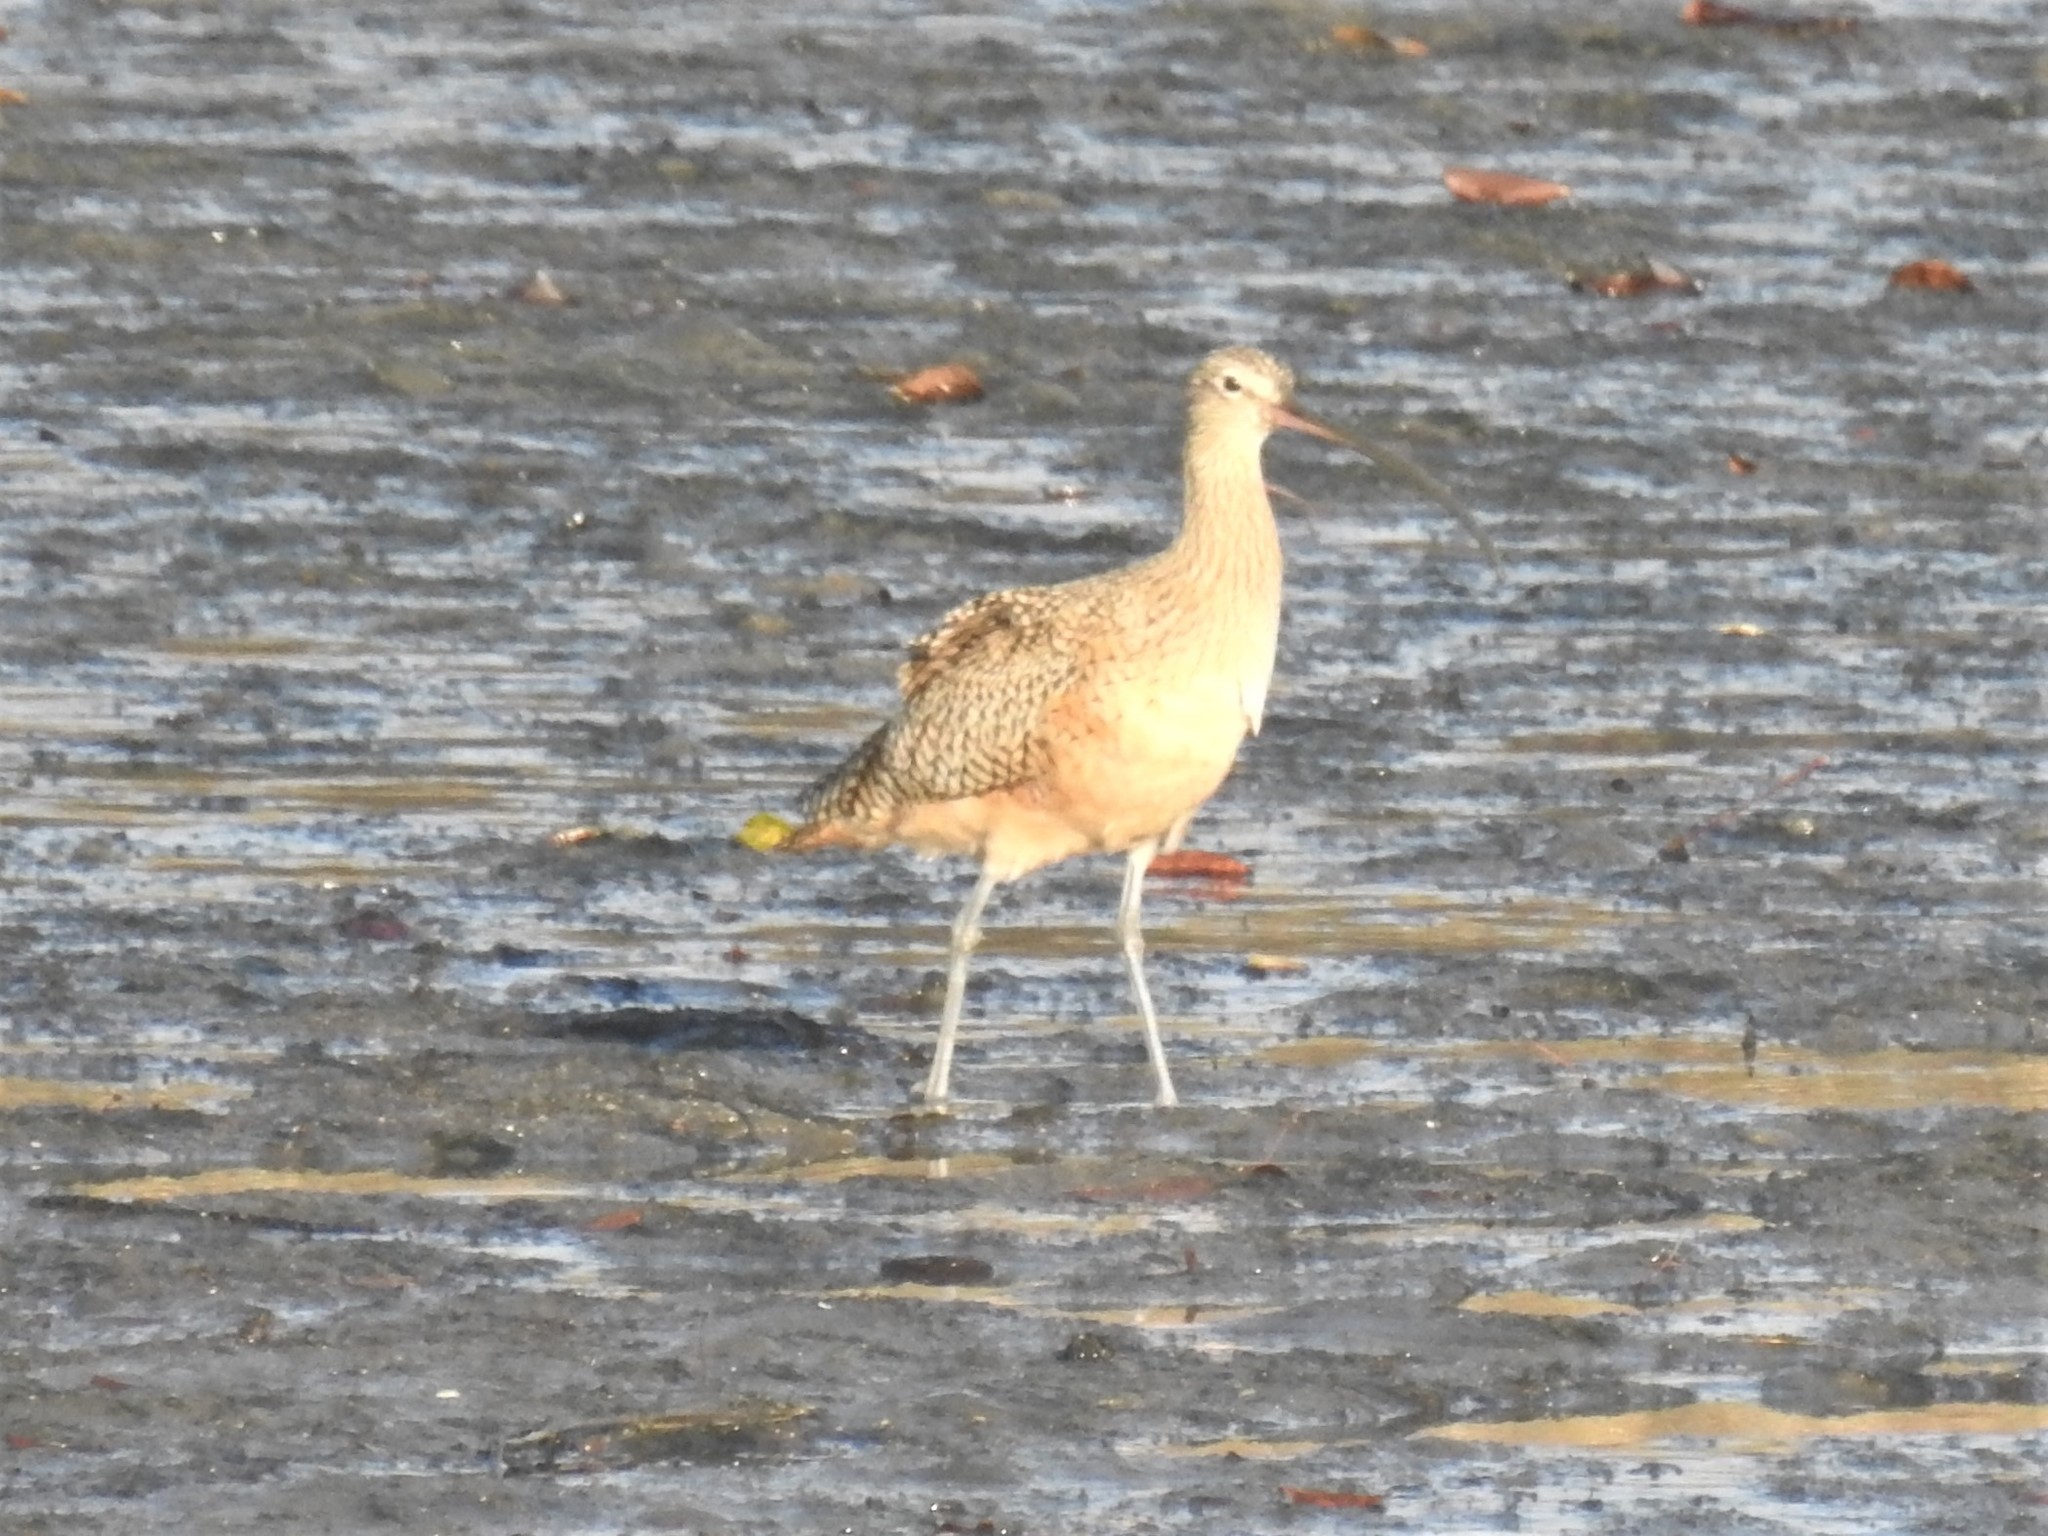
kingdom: Animalia
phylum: Chordata
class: Aves
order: Charadriiformes
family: Scolopacidae
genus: Numenius
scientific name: Numenius americanus
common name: Long-billed curlew
